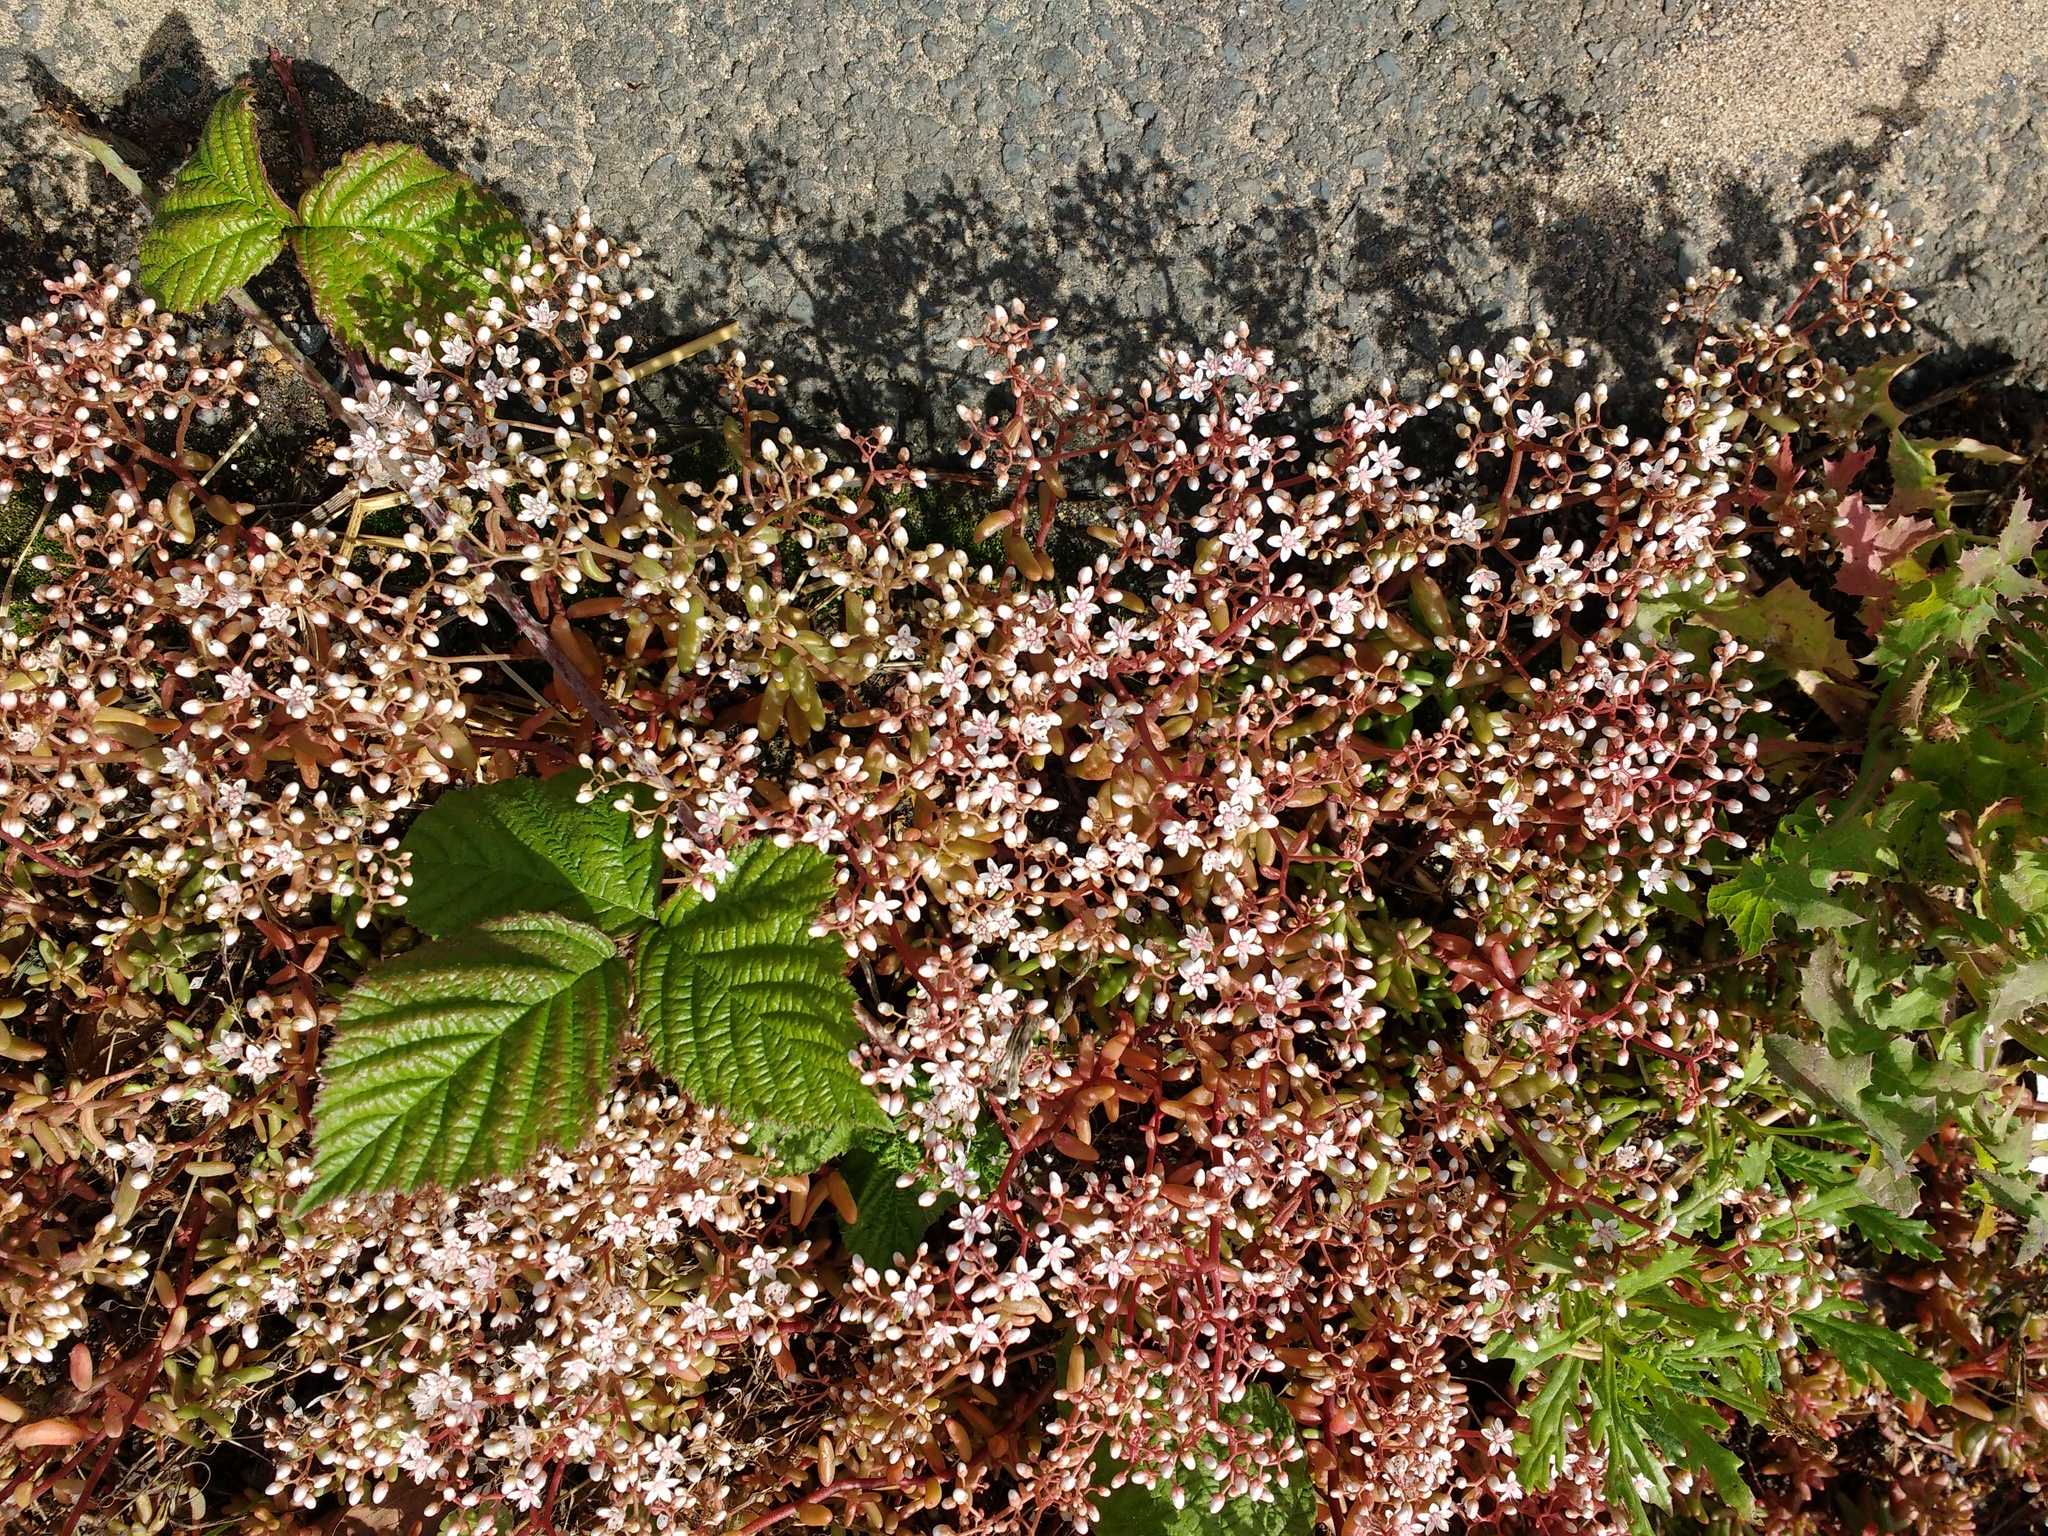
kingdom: Plantae
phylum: Tracheophyta
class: Magnoliopsida
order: Saxifragales
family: Crassulaceae
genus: Sedum
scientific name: Sedum album
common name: White stonecrop
